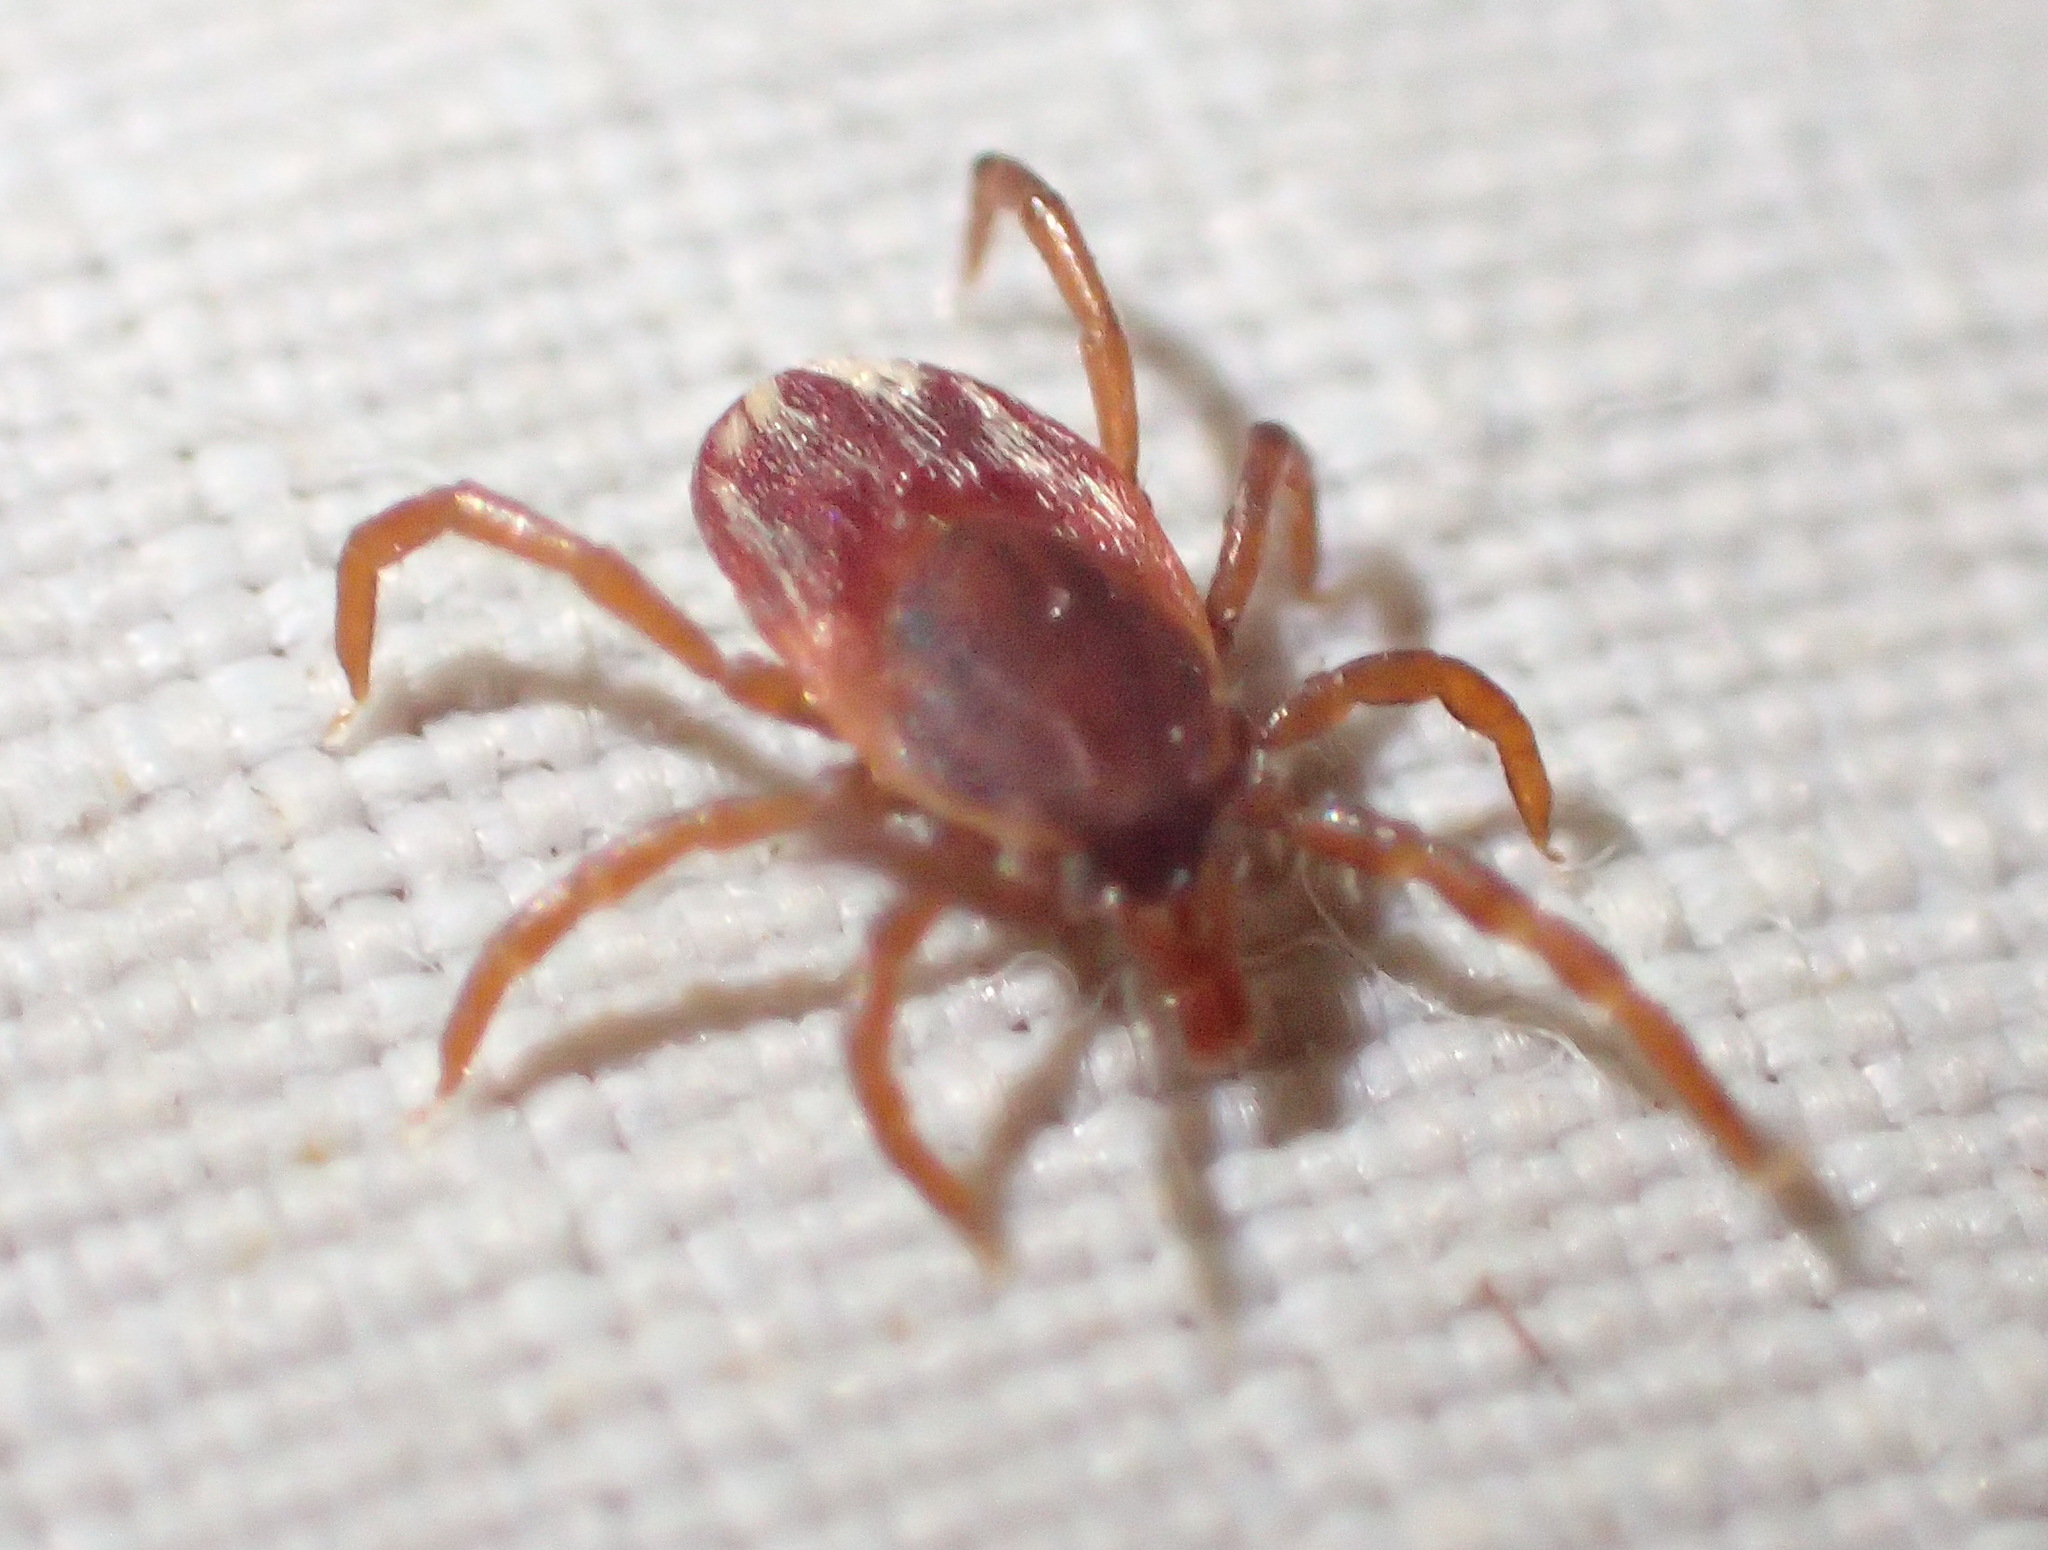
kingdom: Animalia
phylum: Arthropoda
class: Arachnida
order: Ixodida
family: Ixodidae
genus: Ixodes
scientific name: Ixodes pilosus
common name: Bush tick
